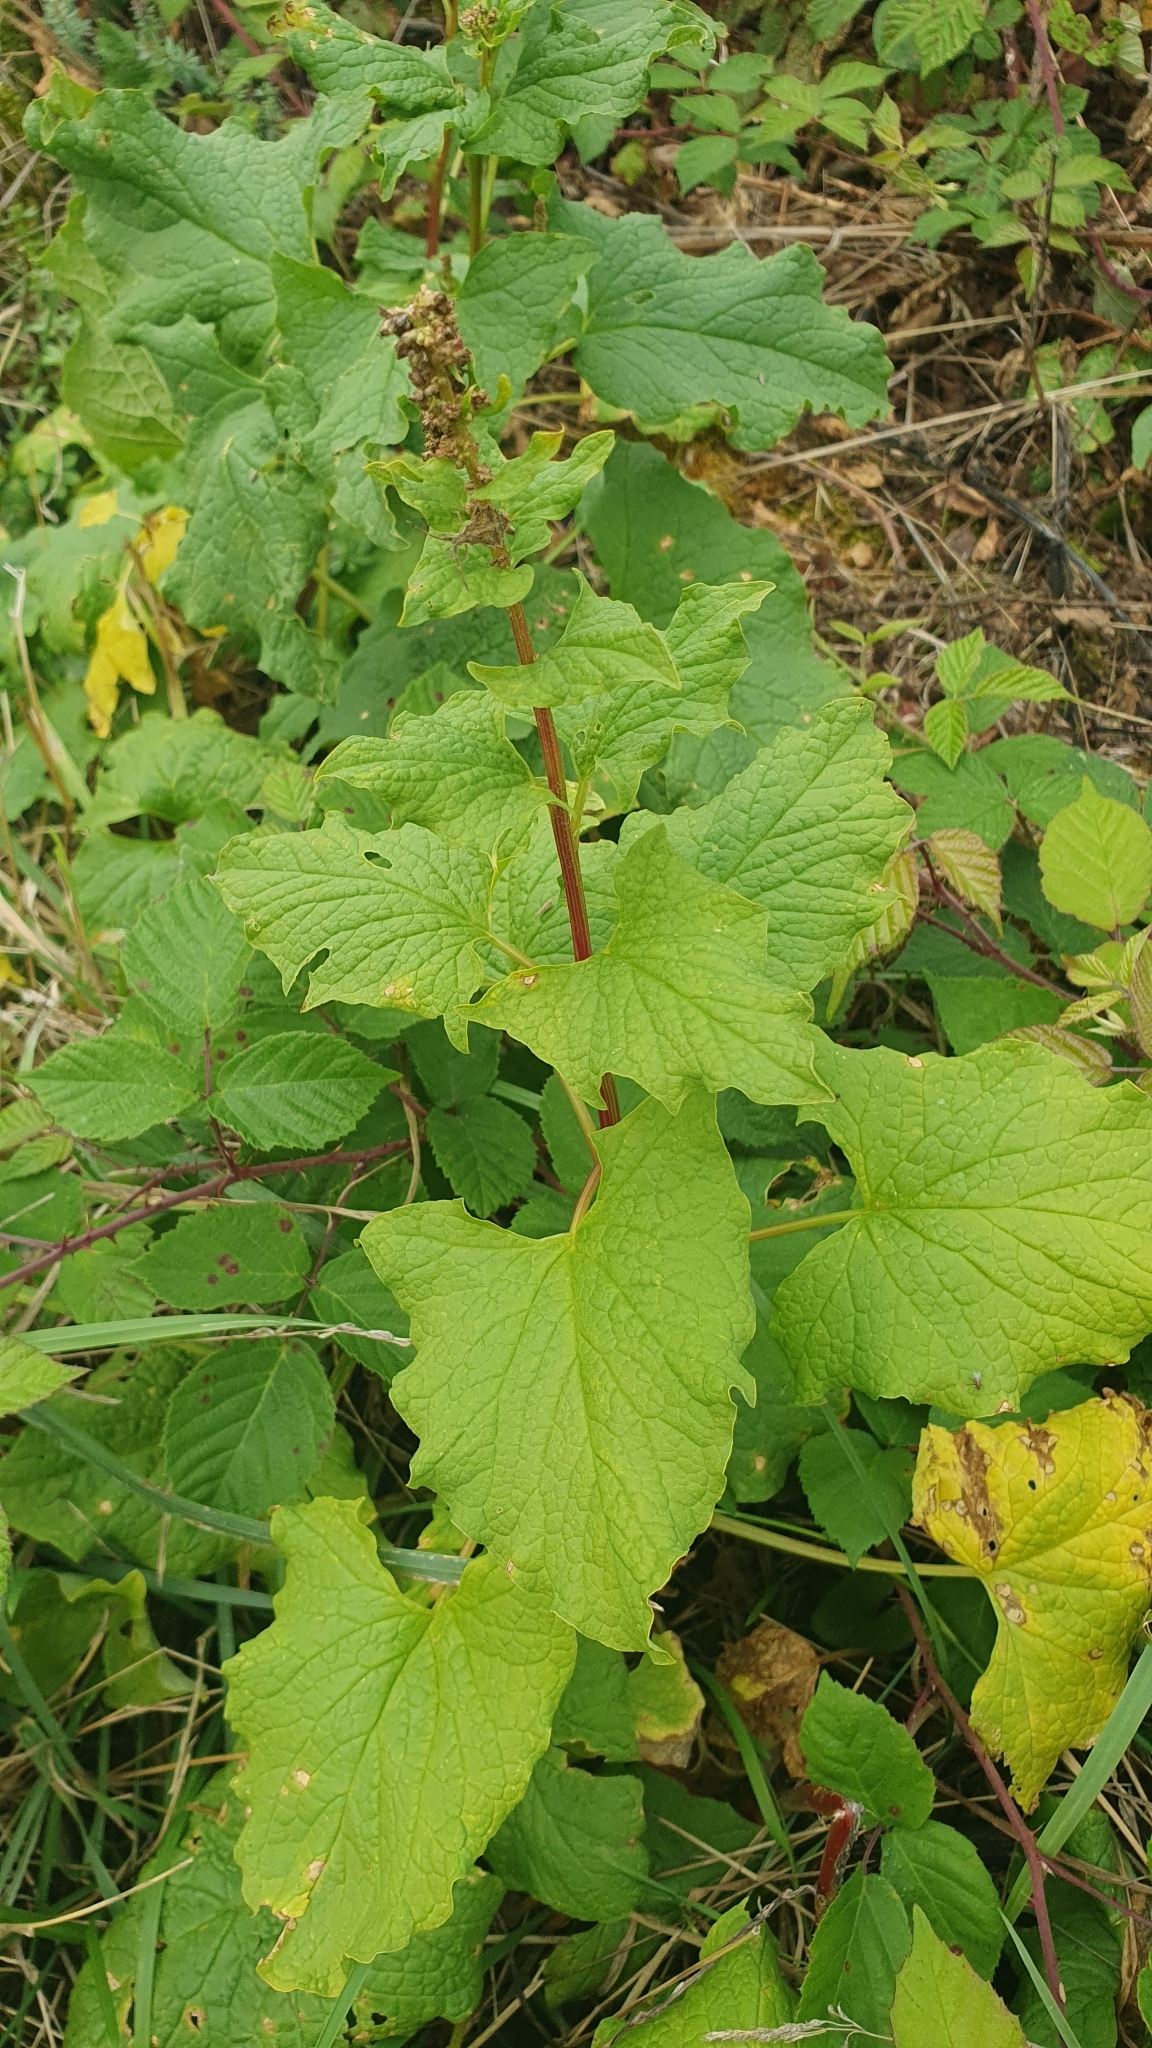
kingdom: Plantae
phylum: Tracheophyta
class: Magnoliopsida
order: Caryophyllales
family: Amaranthaceae
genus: Blitum
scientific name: Blitum bonus-henricus
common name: Good king henry
